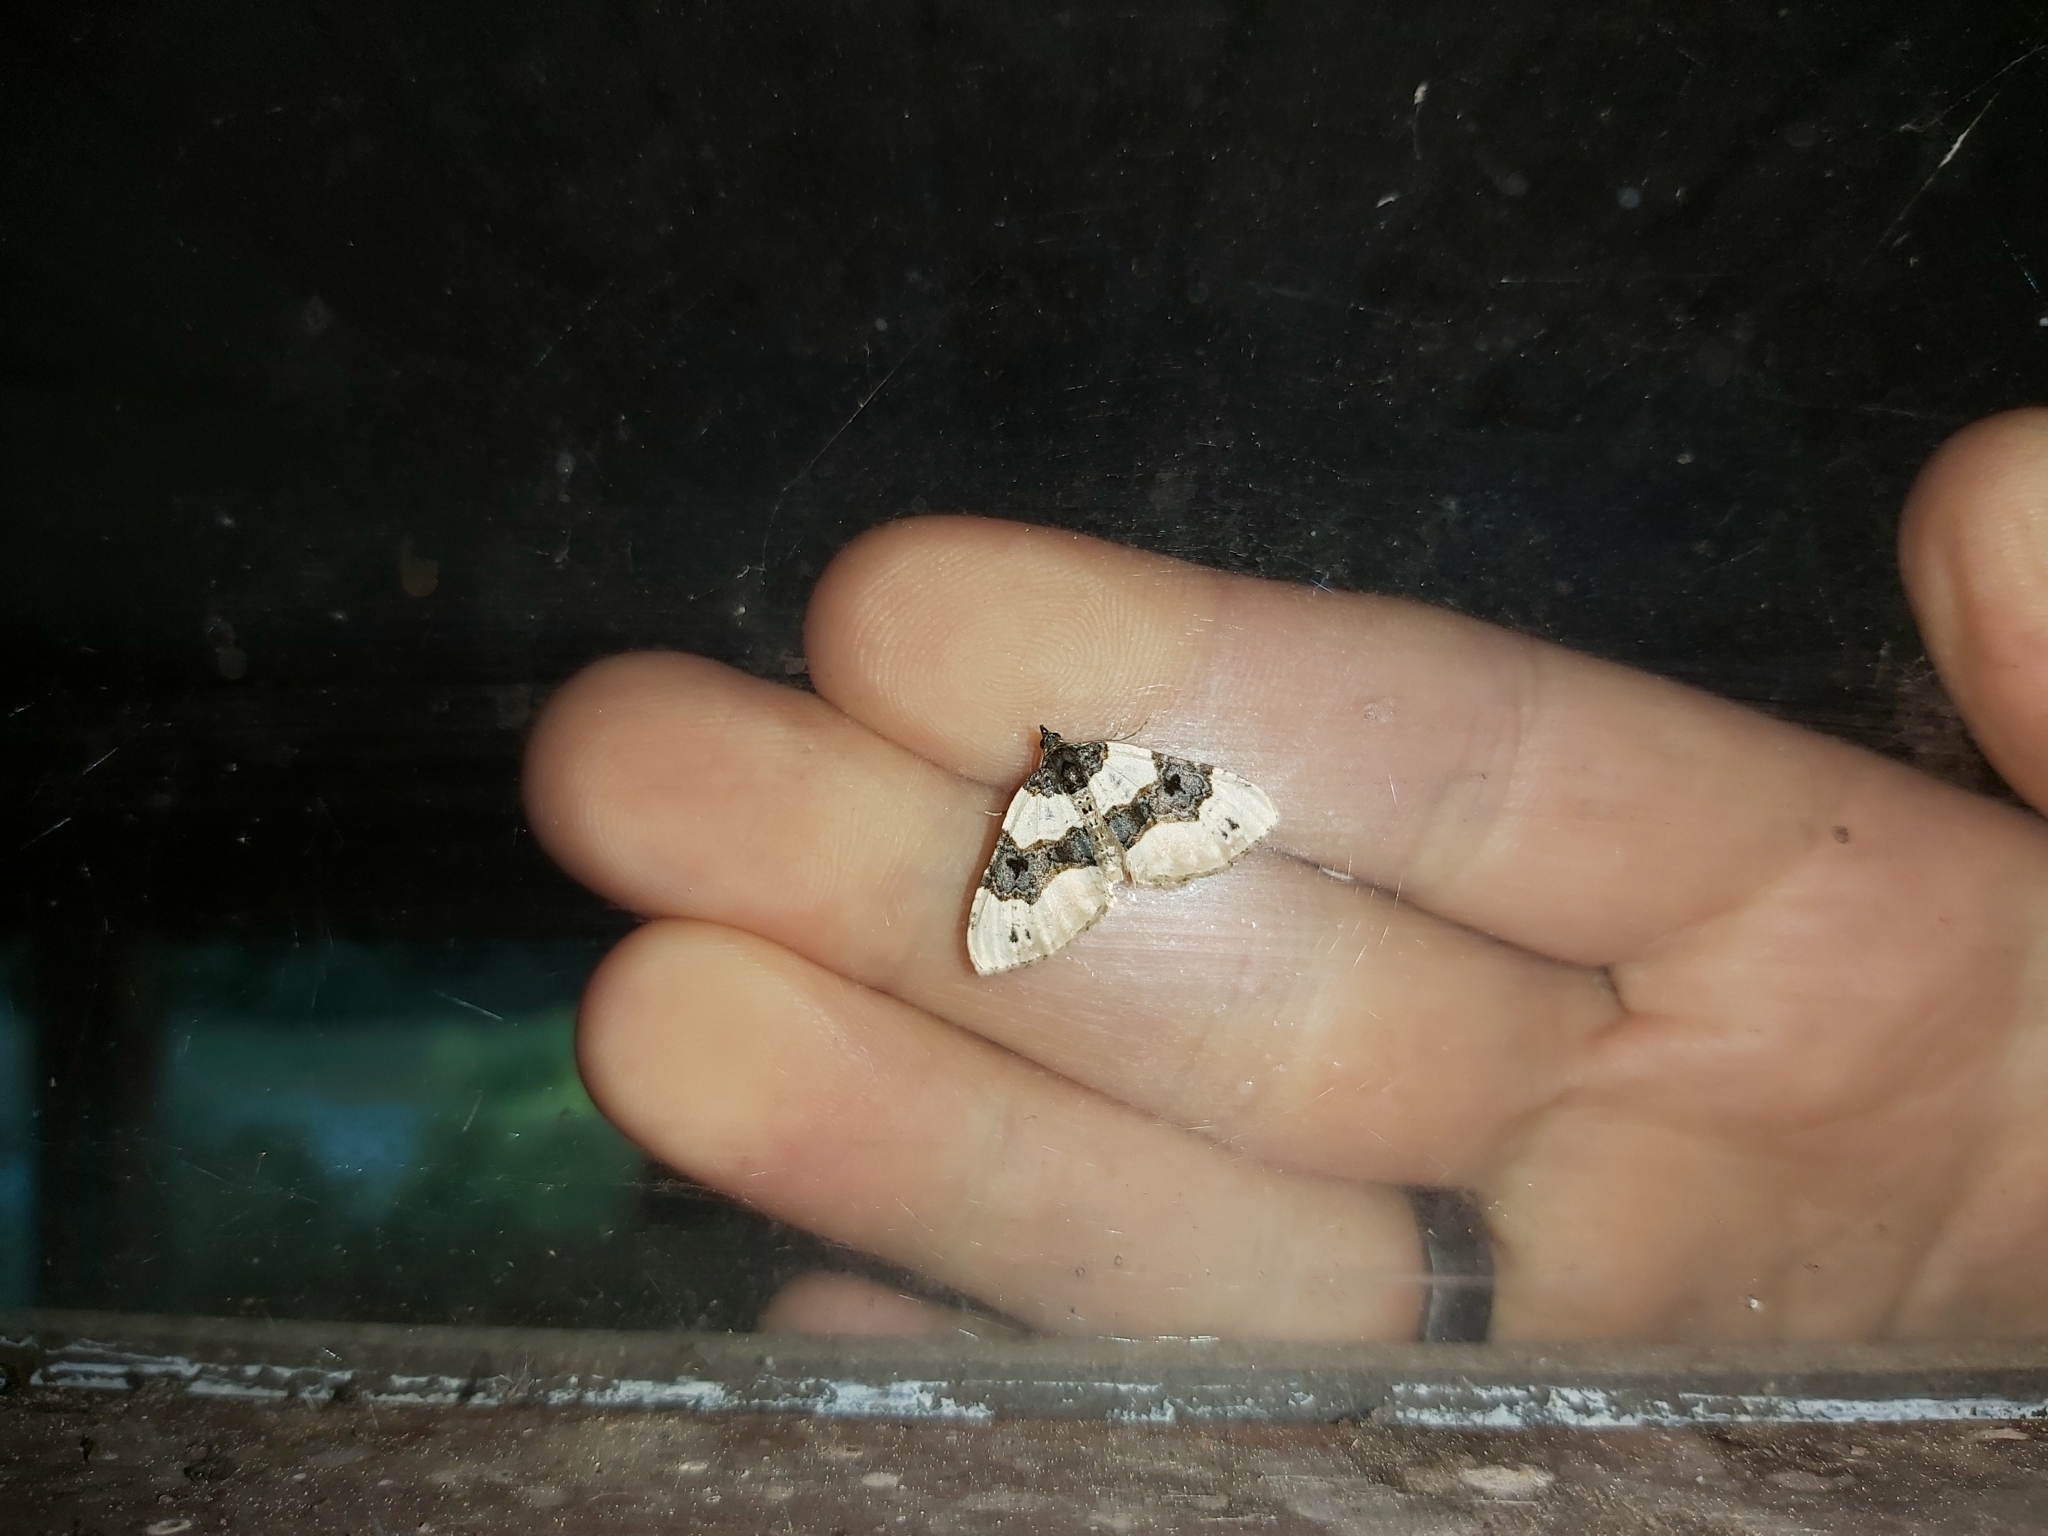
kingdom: Animalia
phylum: Arthropoda
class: Insecta
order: Lepidoptera
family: Geometridae
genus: Cosmorhoe
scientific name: Cosmorhoe ocellata
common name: Purple bar
